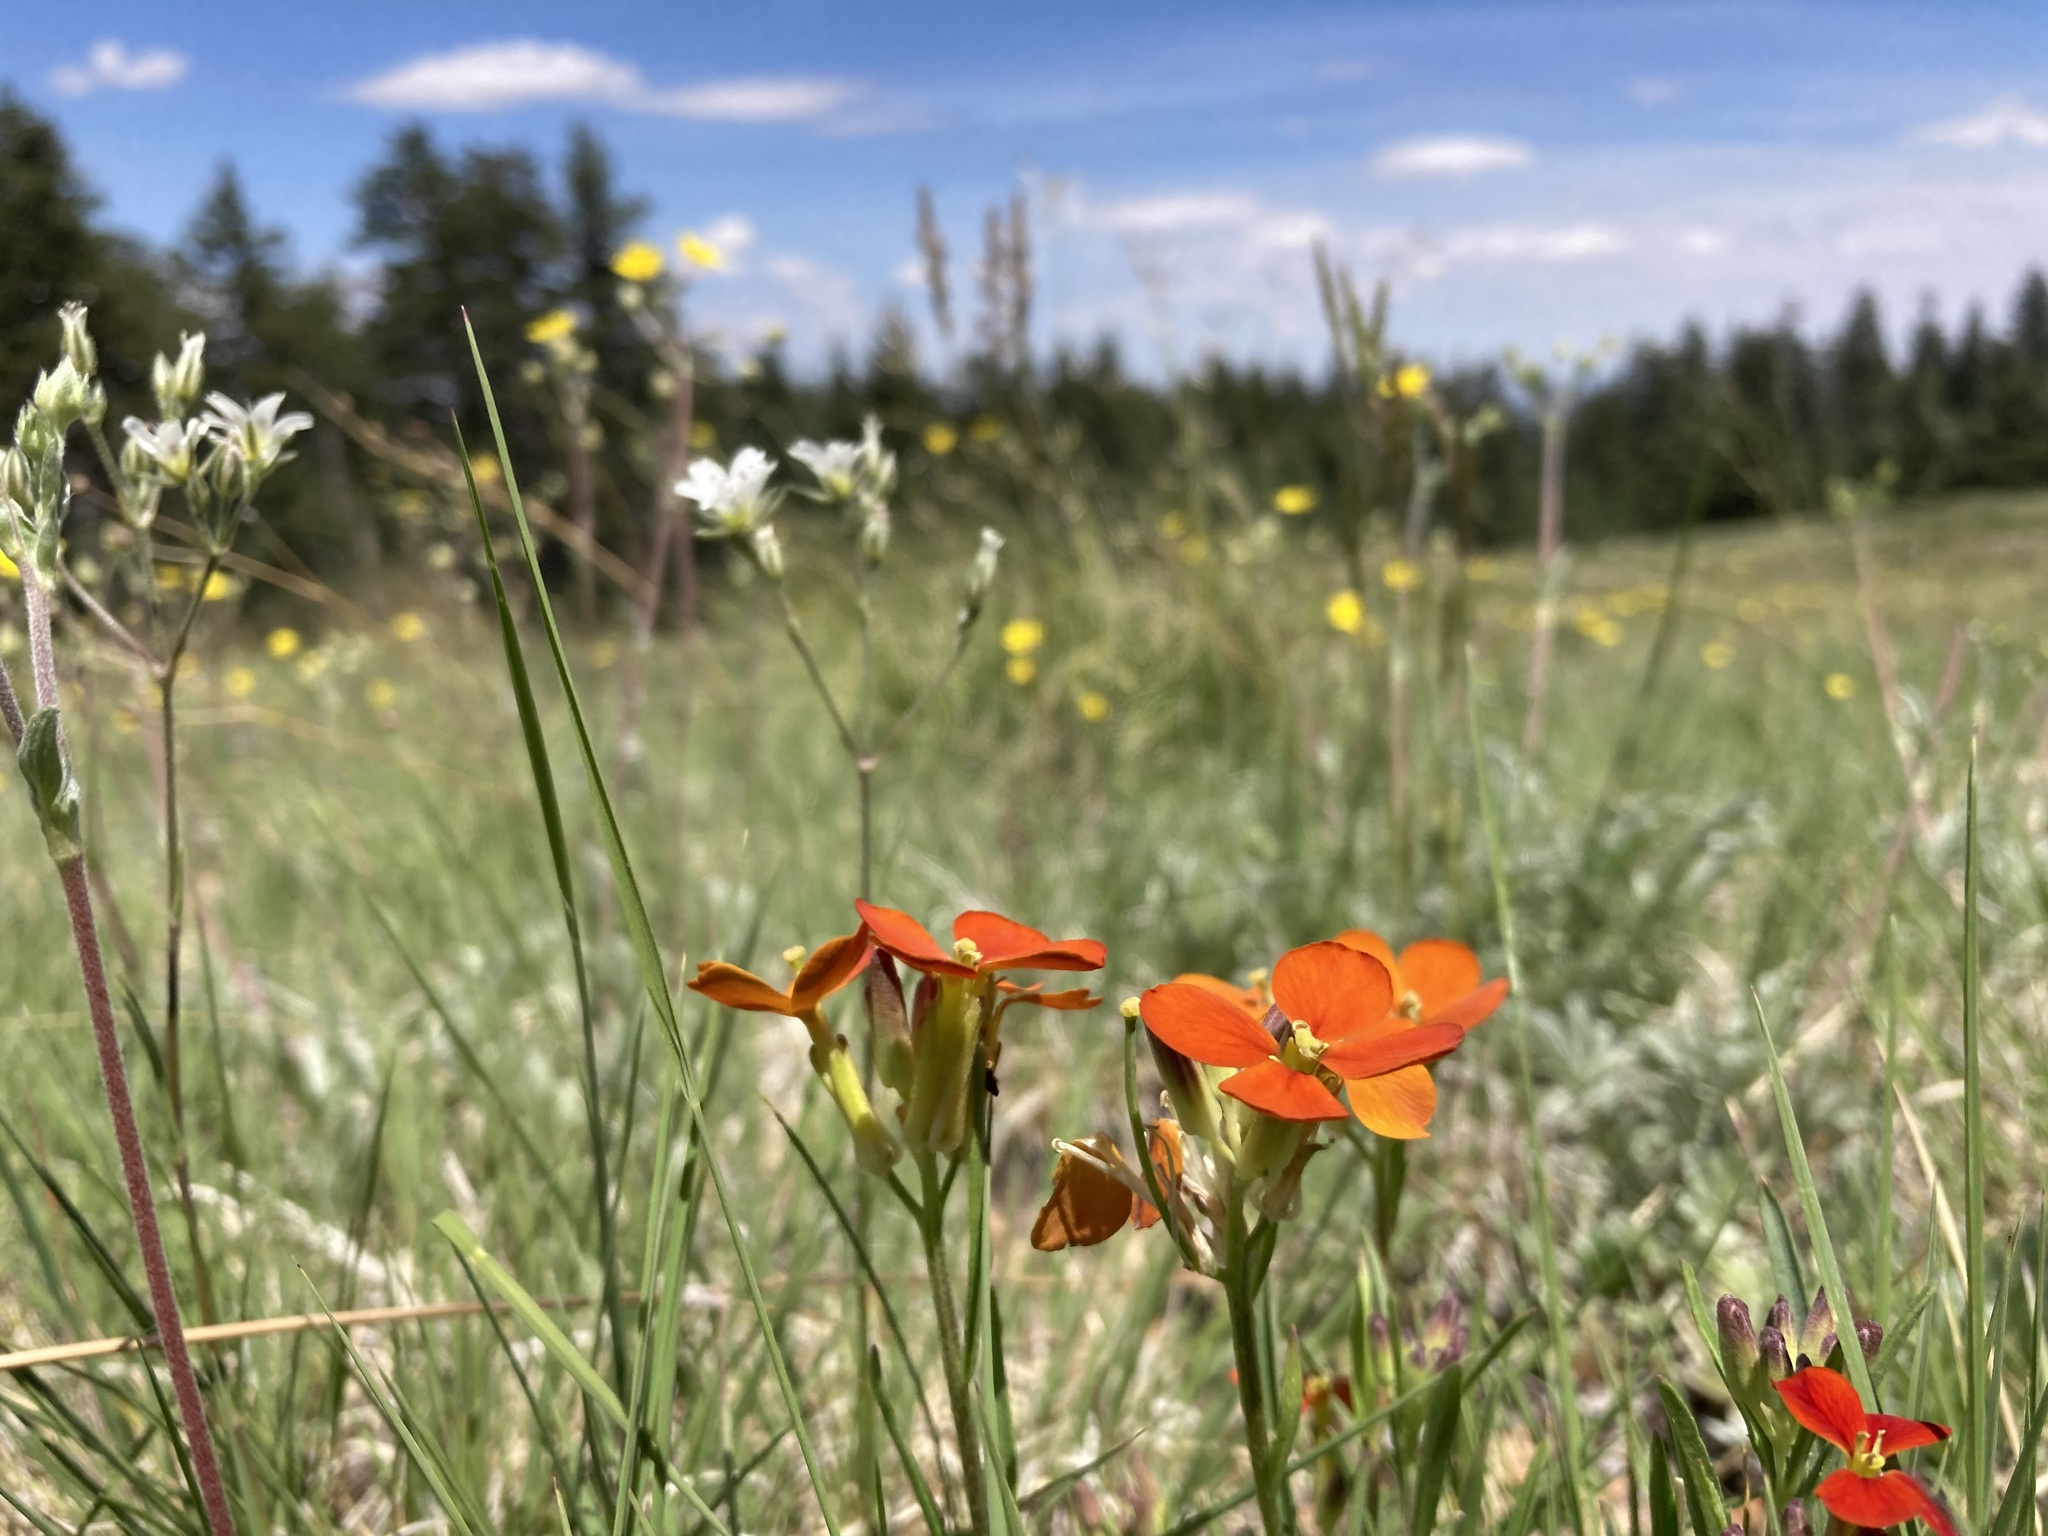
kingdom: Plantae
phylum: Tracheophyta
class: Magnoliopsida
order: Brassicales
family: Brassicaceae
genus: Erysimum
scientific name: Erysimum capitatum
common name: Western wallflower
